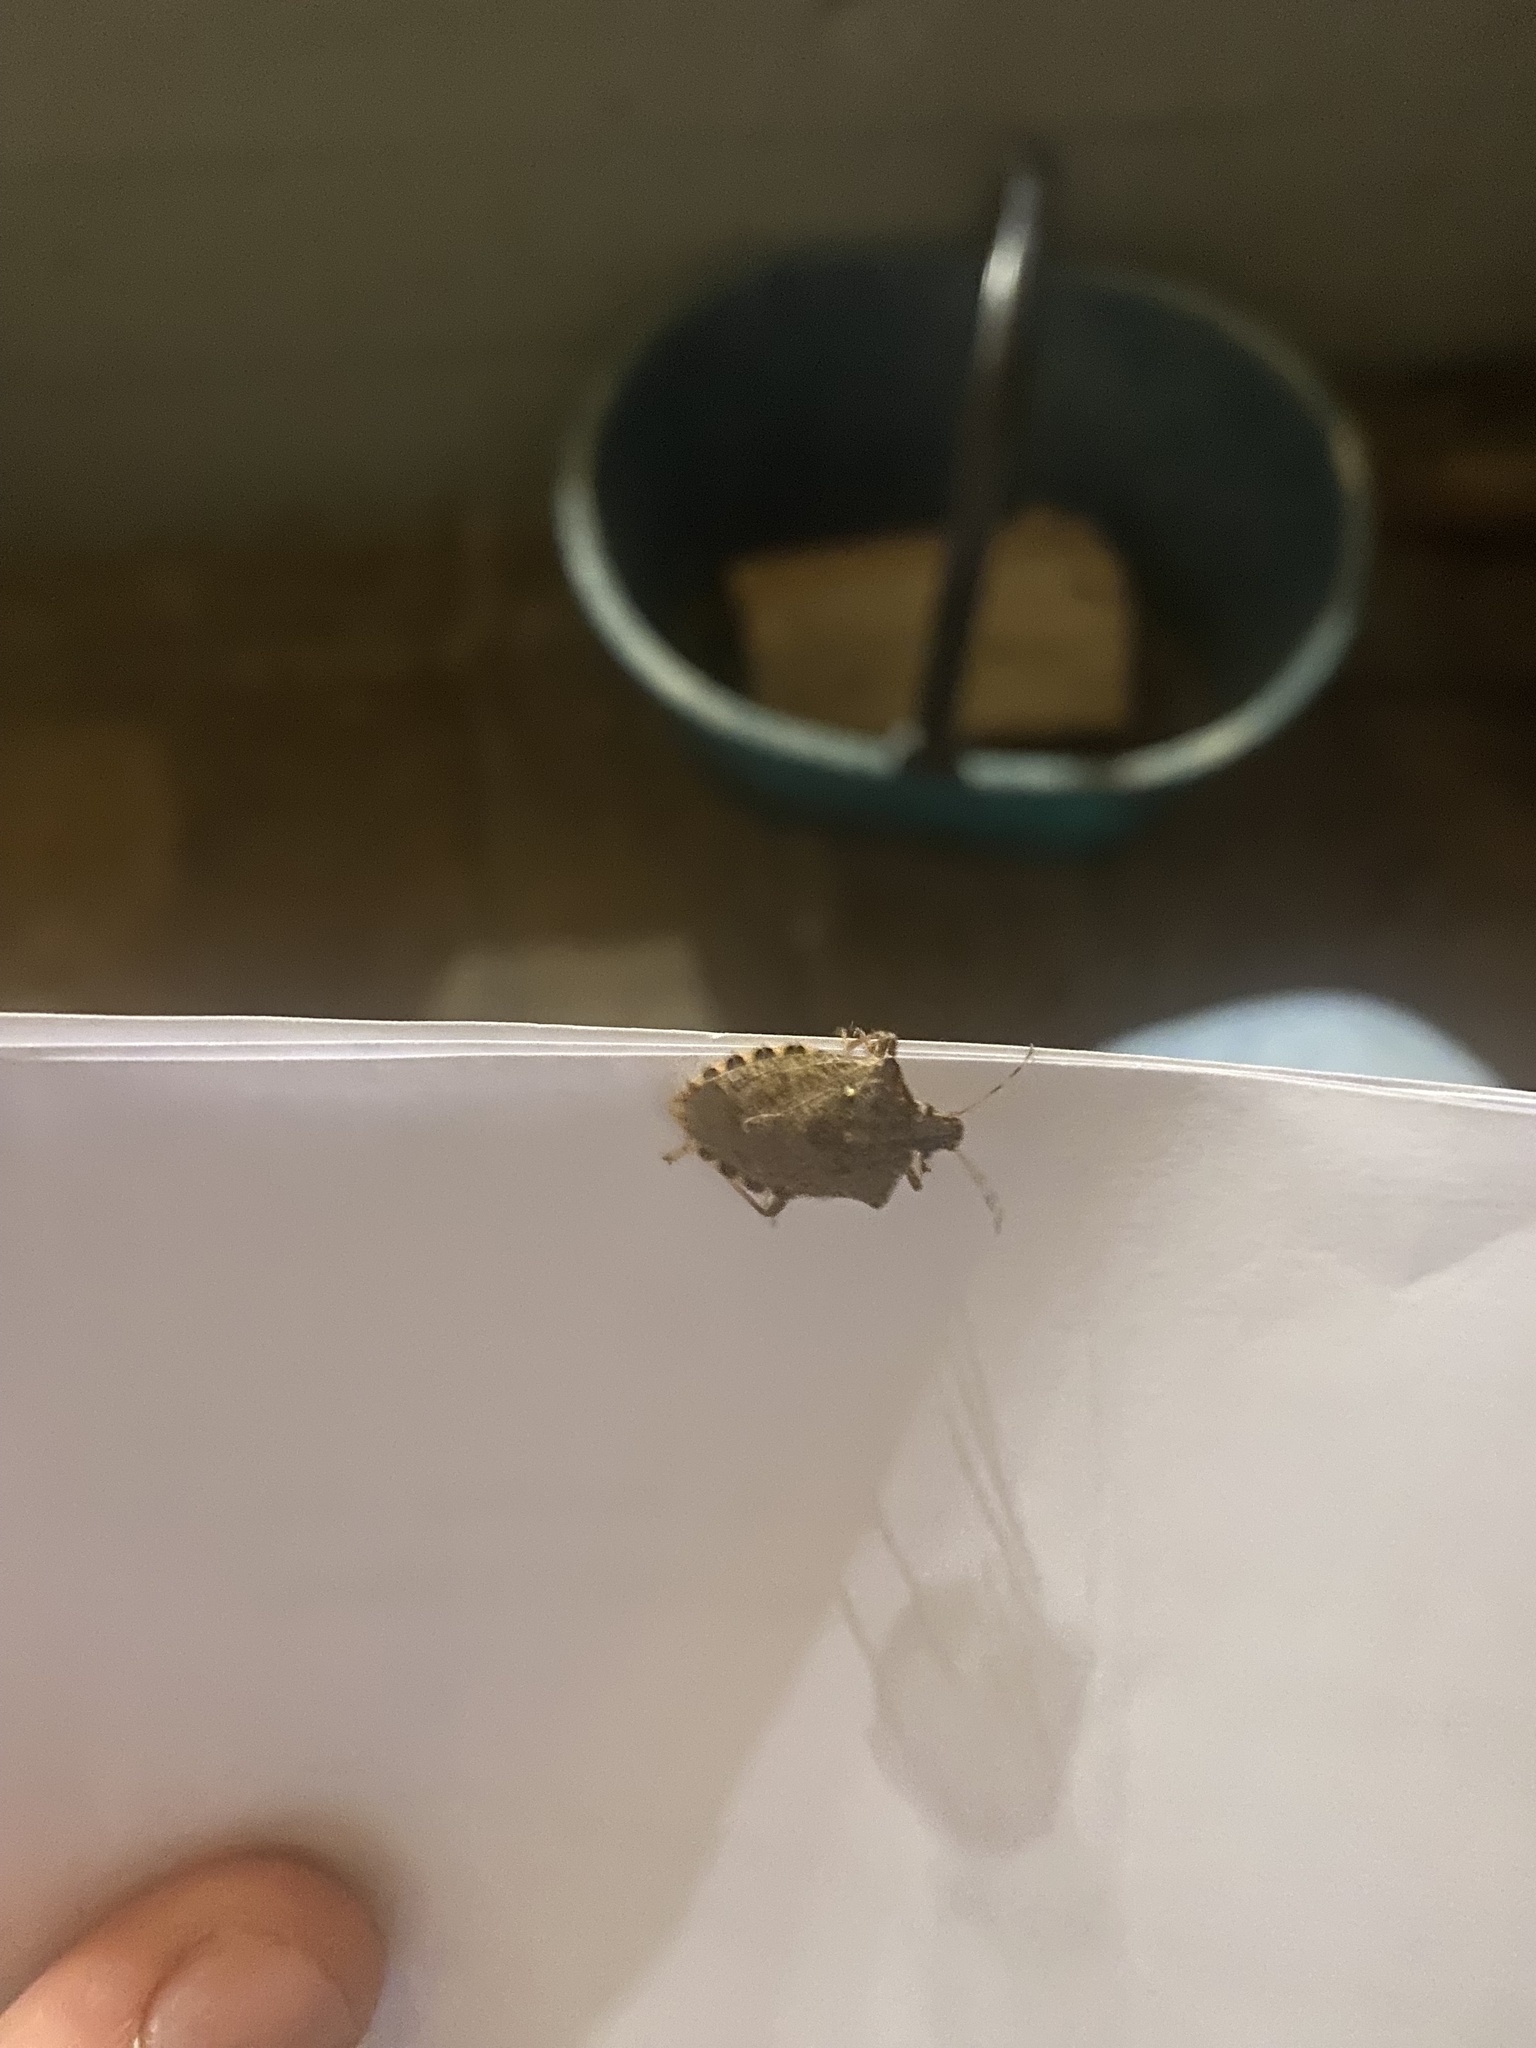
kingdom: Animalia
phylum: Arthropoda
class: Insecta
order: Hemiptera
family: Pentatomidae
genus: Halyomorpha
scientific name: Halyomorpha halys
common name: Brown marmorated stink bug
